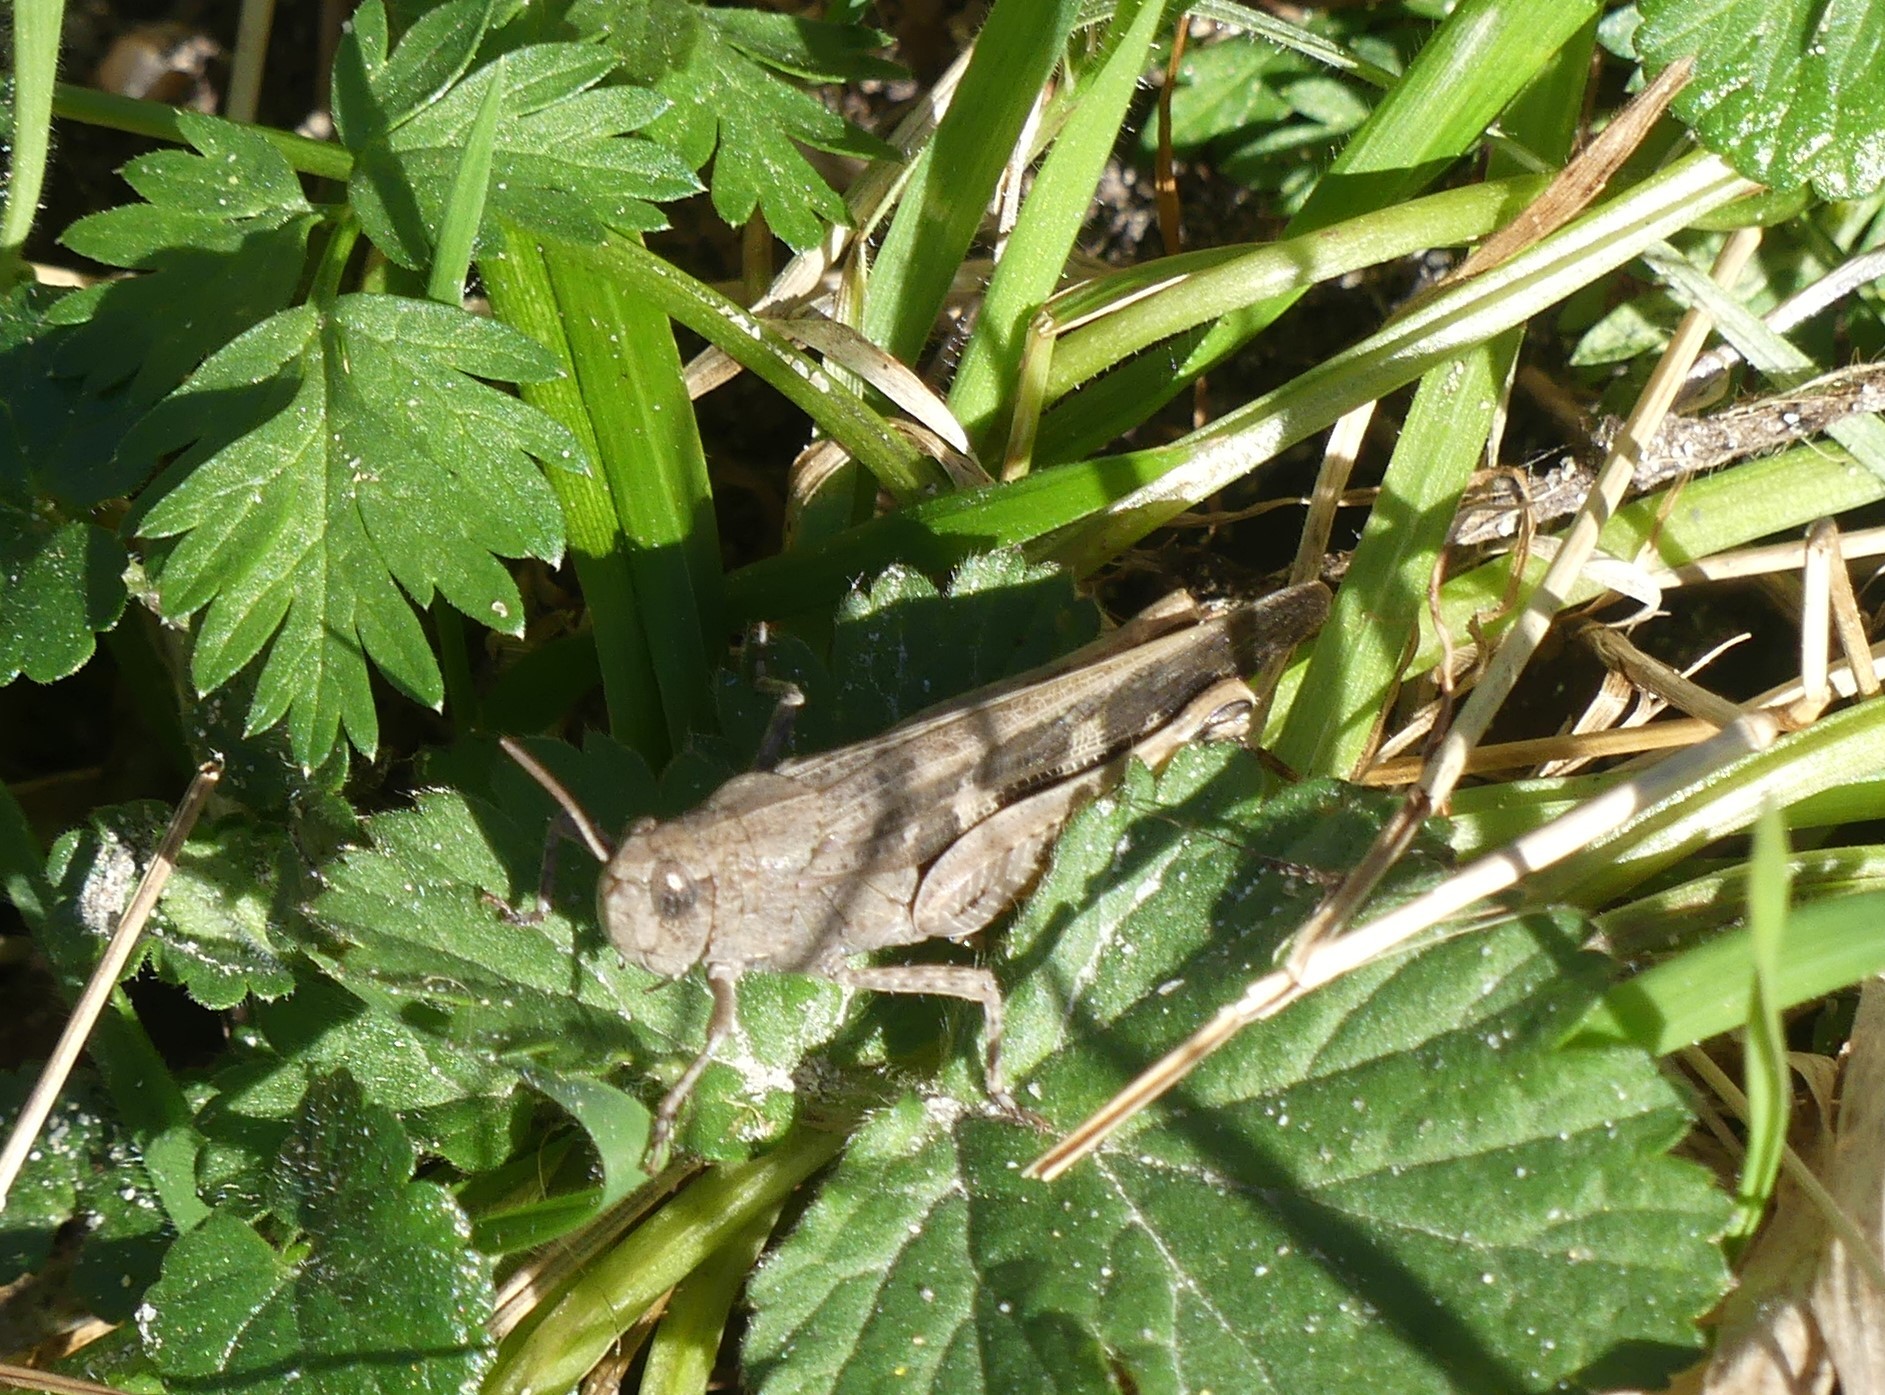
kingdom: Animalia
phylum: Arthropoda
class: Insecta
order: Orthoptera
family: Acrididae
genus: Aiolopus
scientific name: Aiolopus strepens
